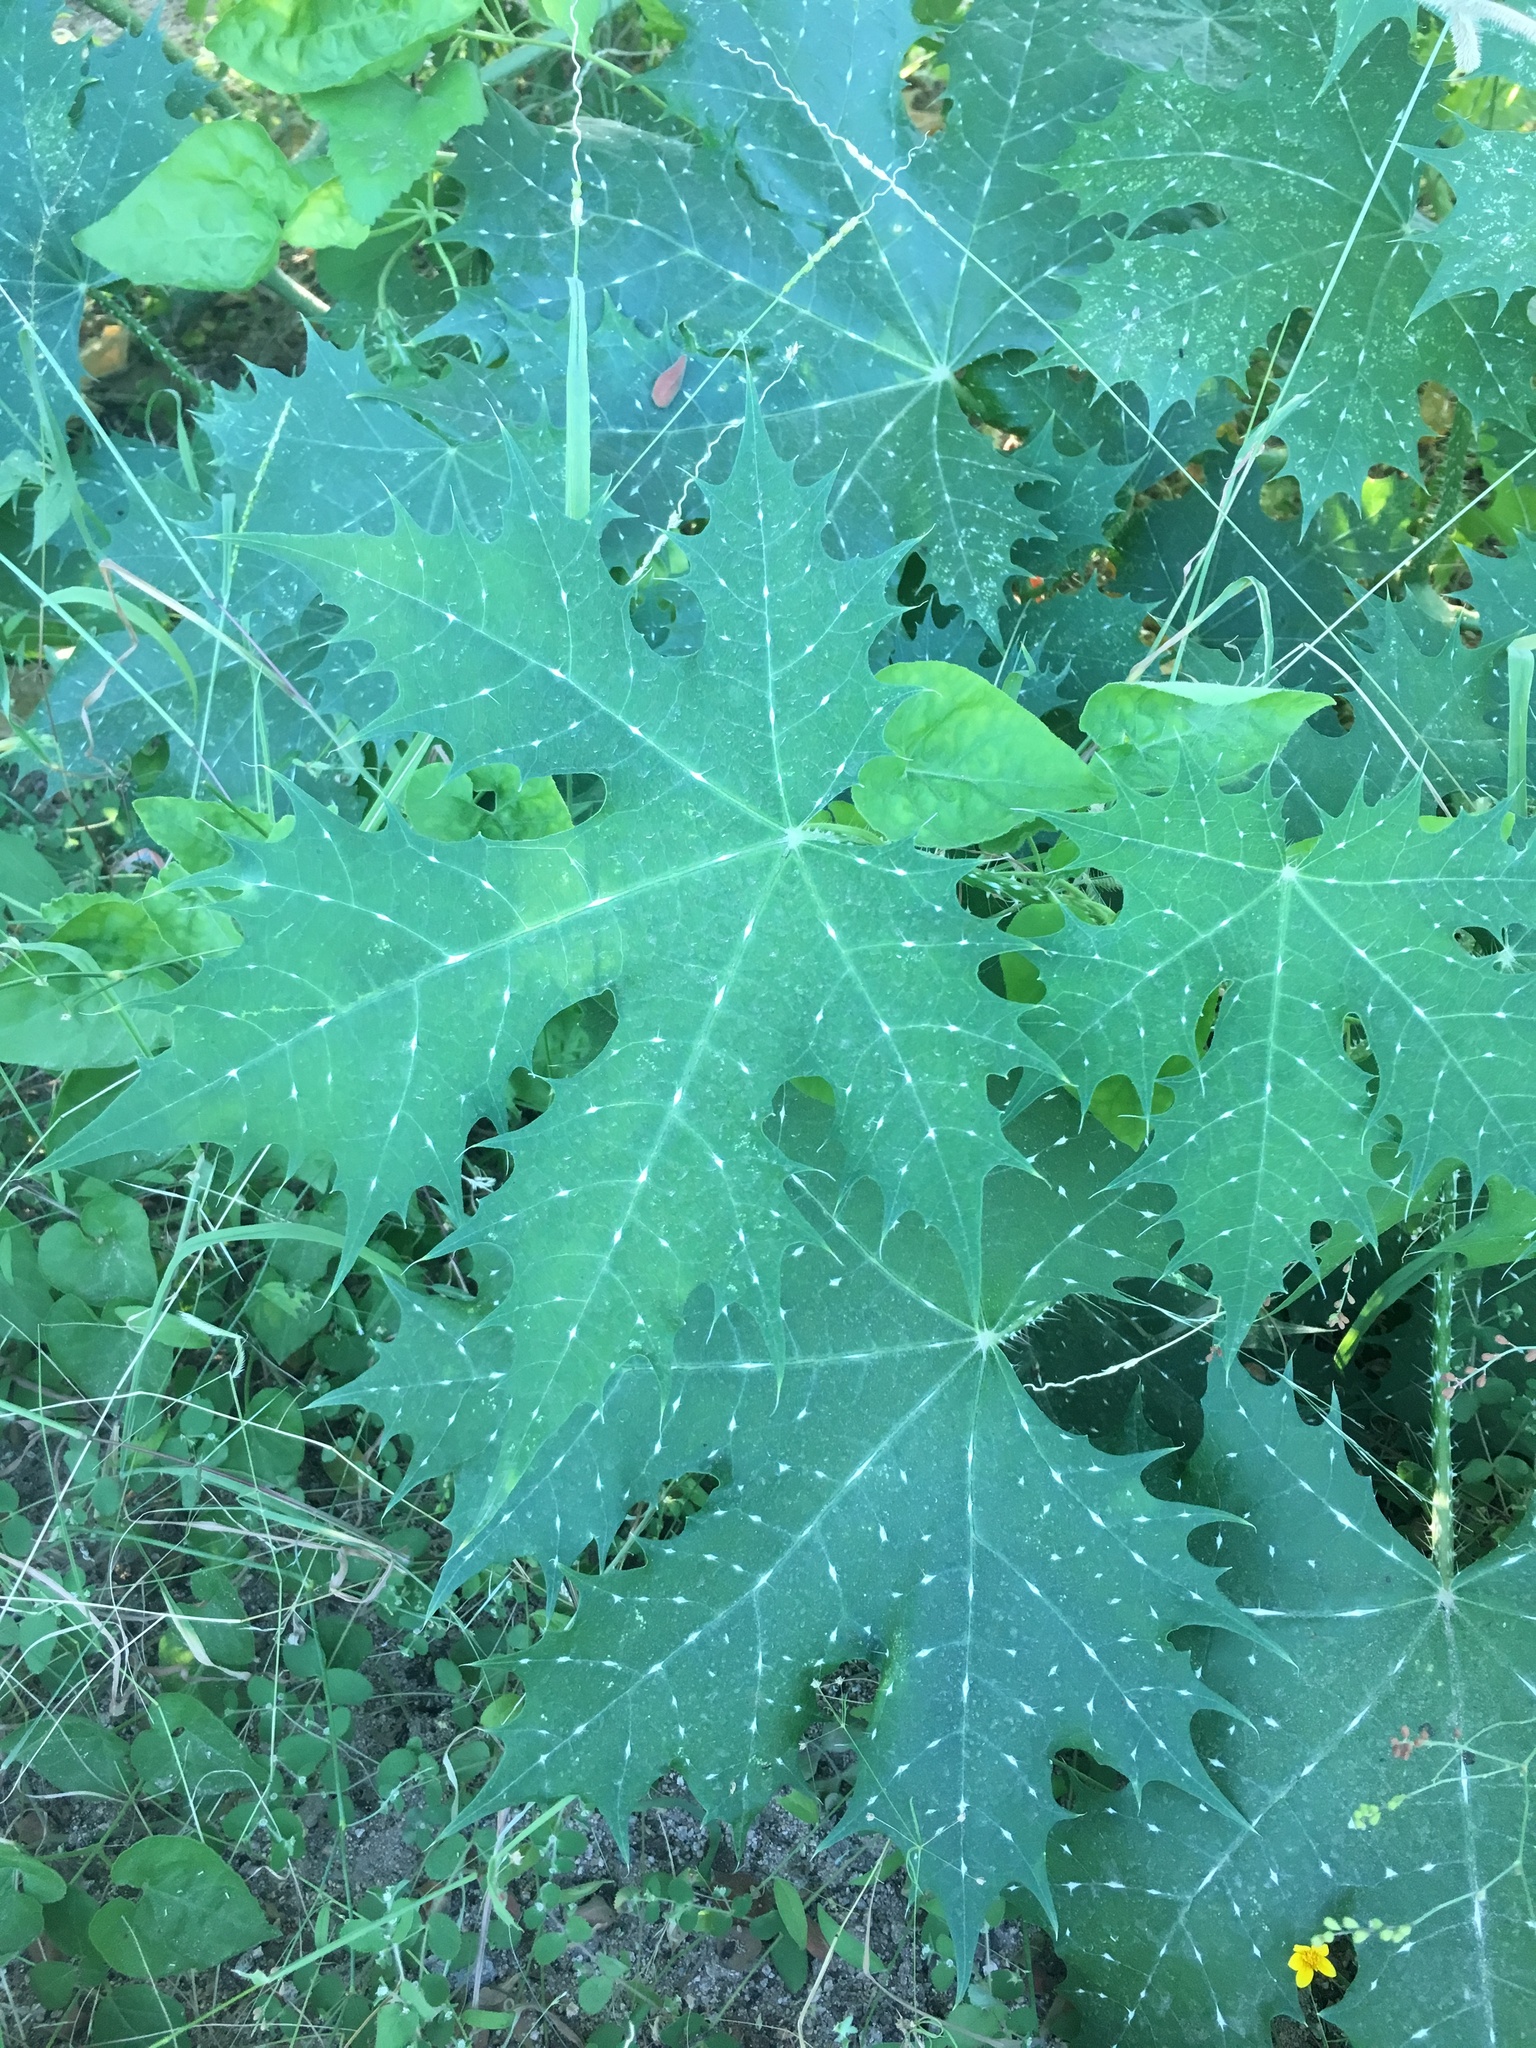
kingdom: Plantae
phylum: Tracheophyta
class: Magnoliopsida
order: Malpighiales
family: Euphorbiaceae
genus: Cnidoscolus
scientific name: Cnidoscolus maculatus
